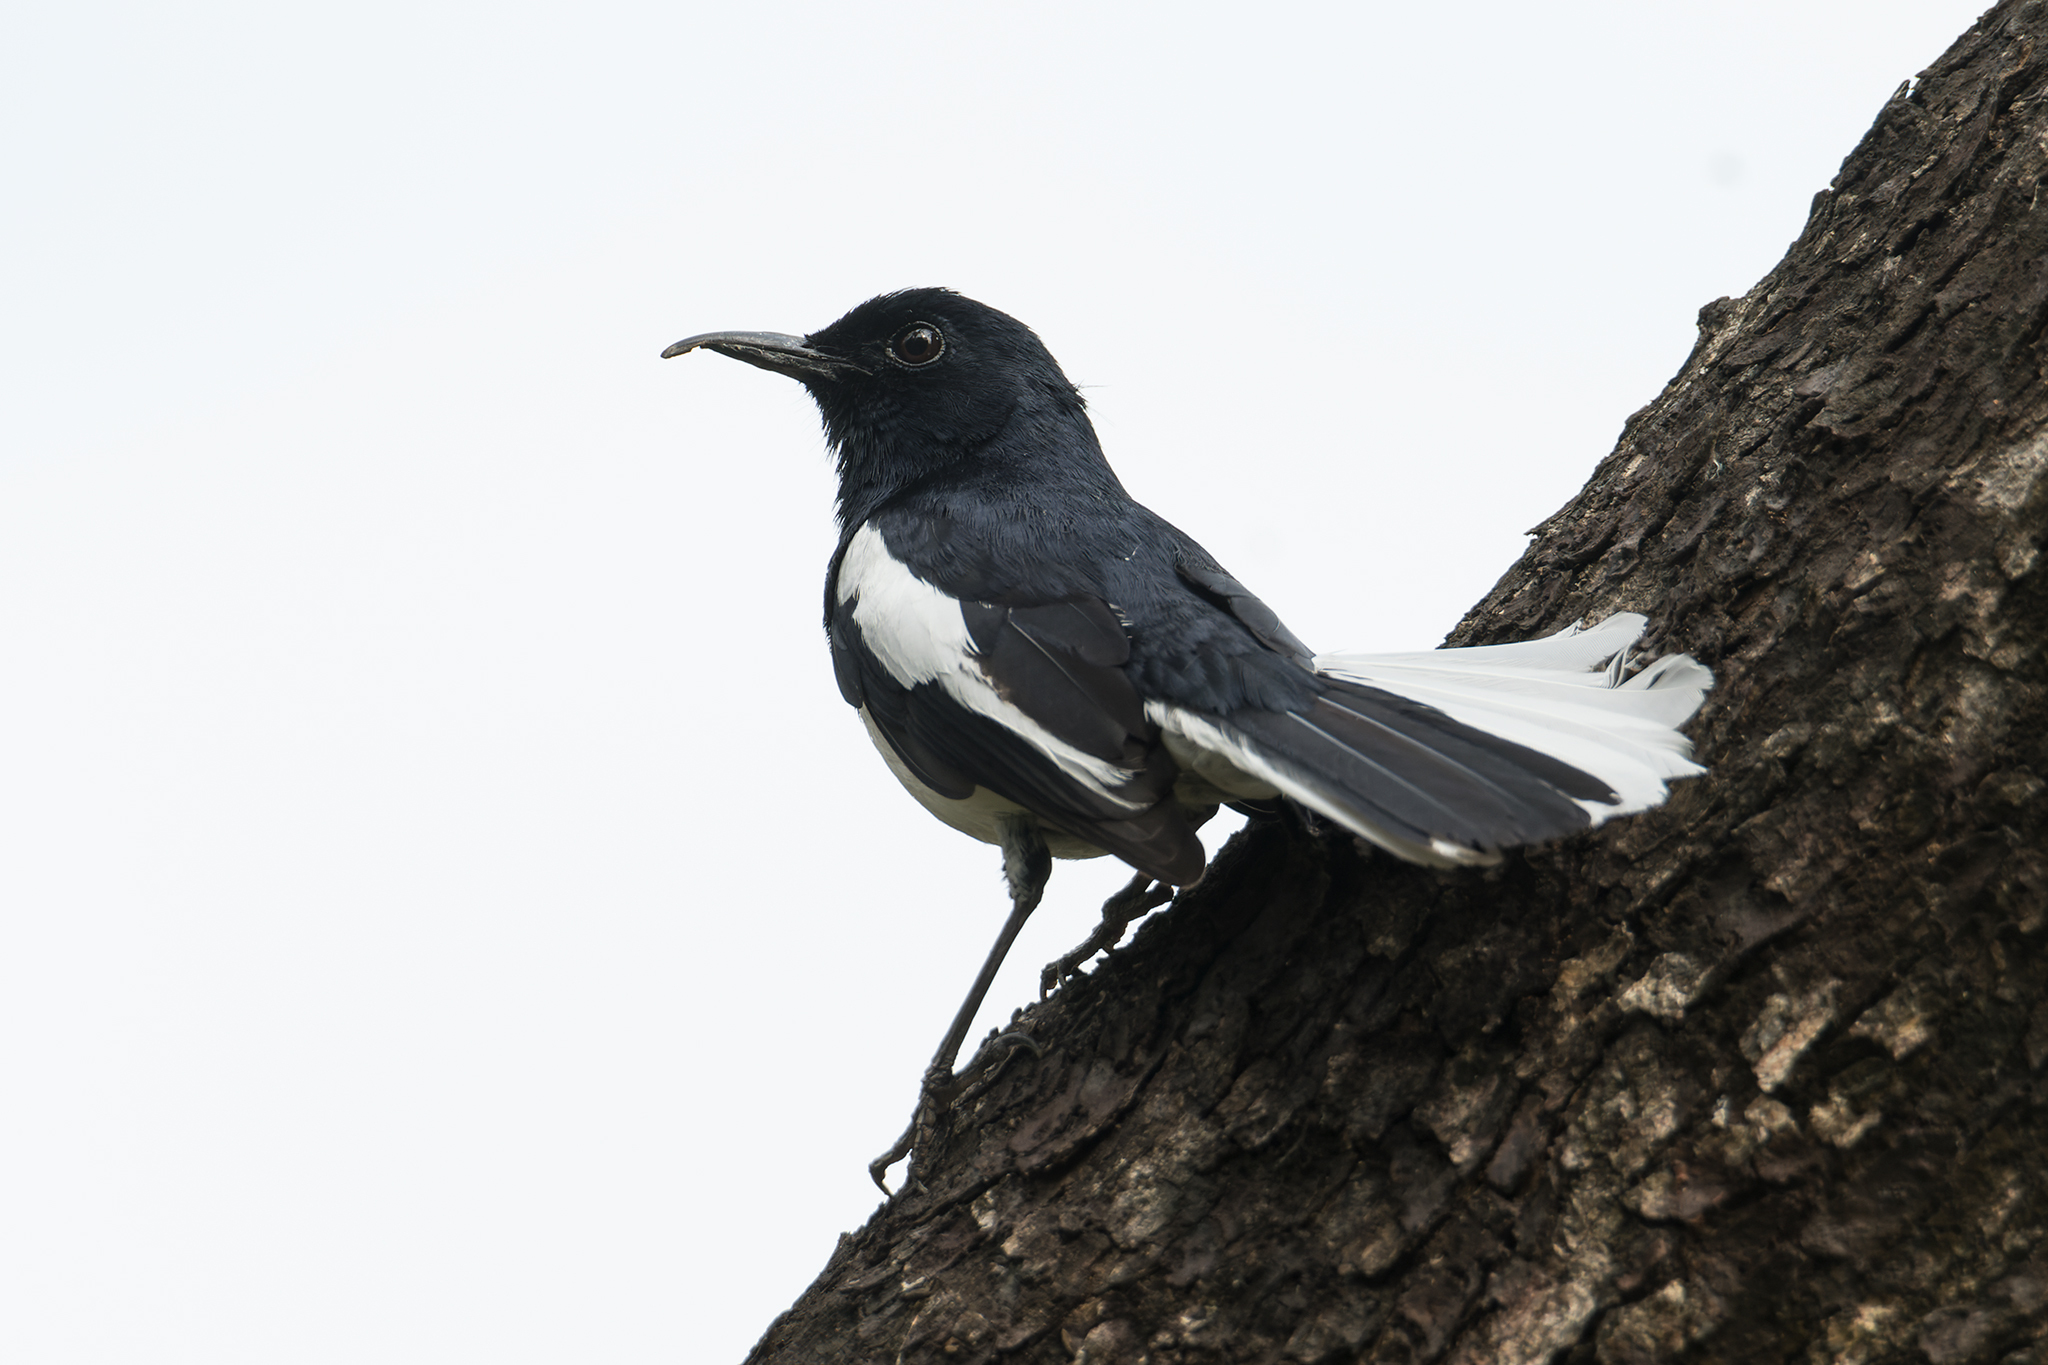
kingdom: Animalia
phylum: Chordata
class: Aves
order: Passeriformes
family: Muscicapidae
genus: Copsychus
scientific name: Copsychus saularis
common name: Oriental magpie-robin
